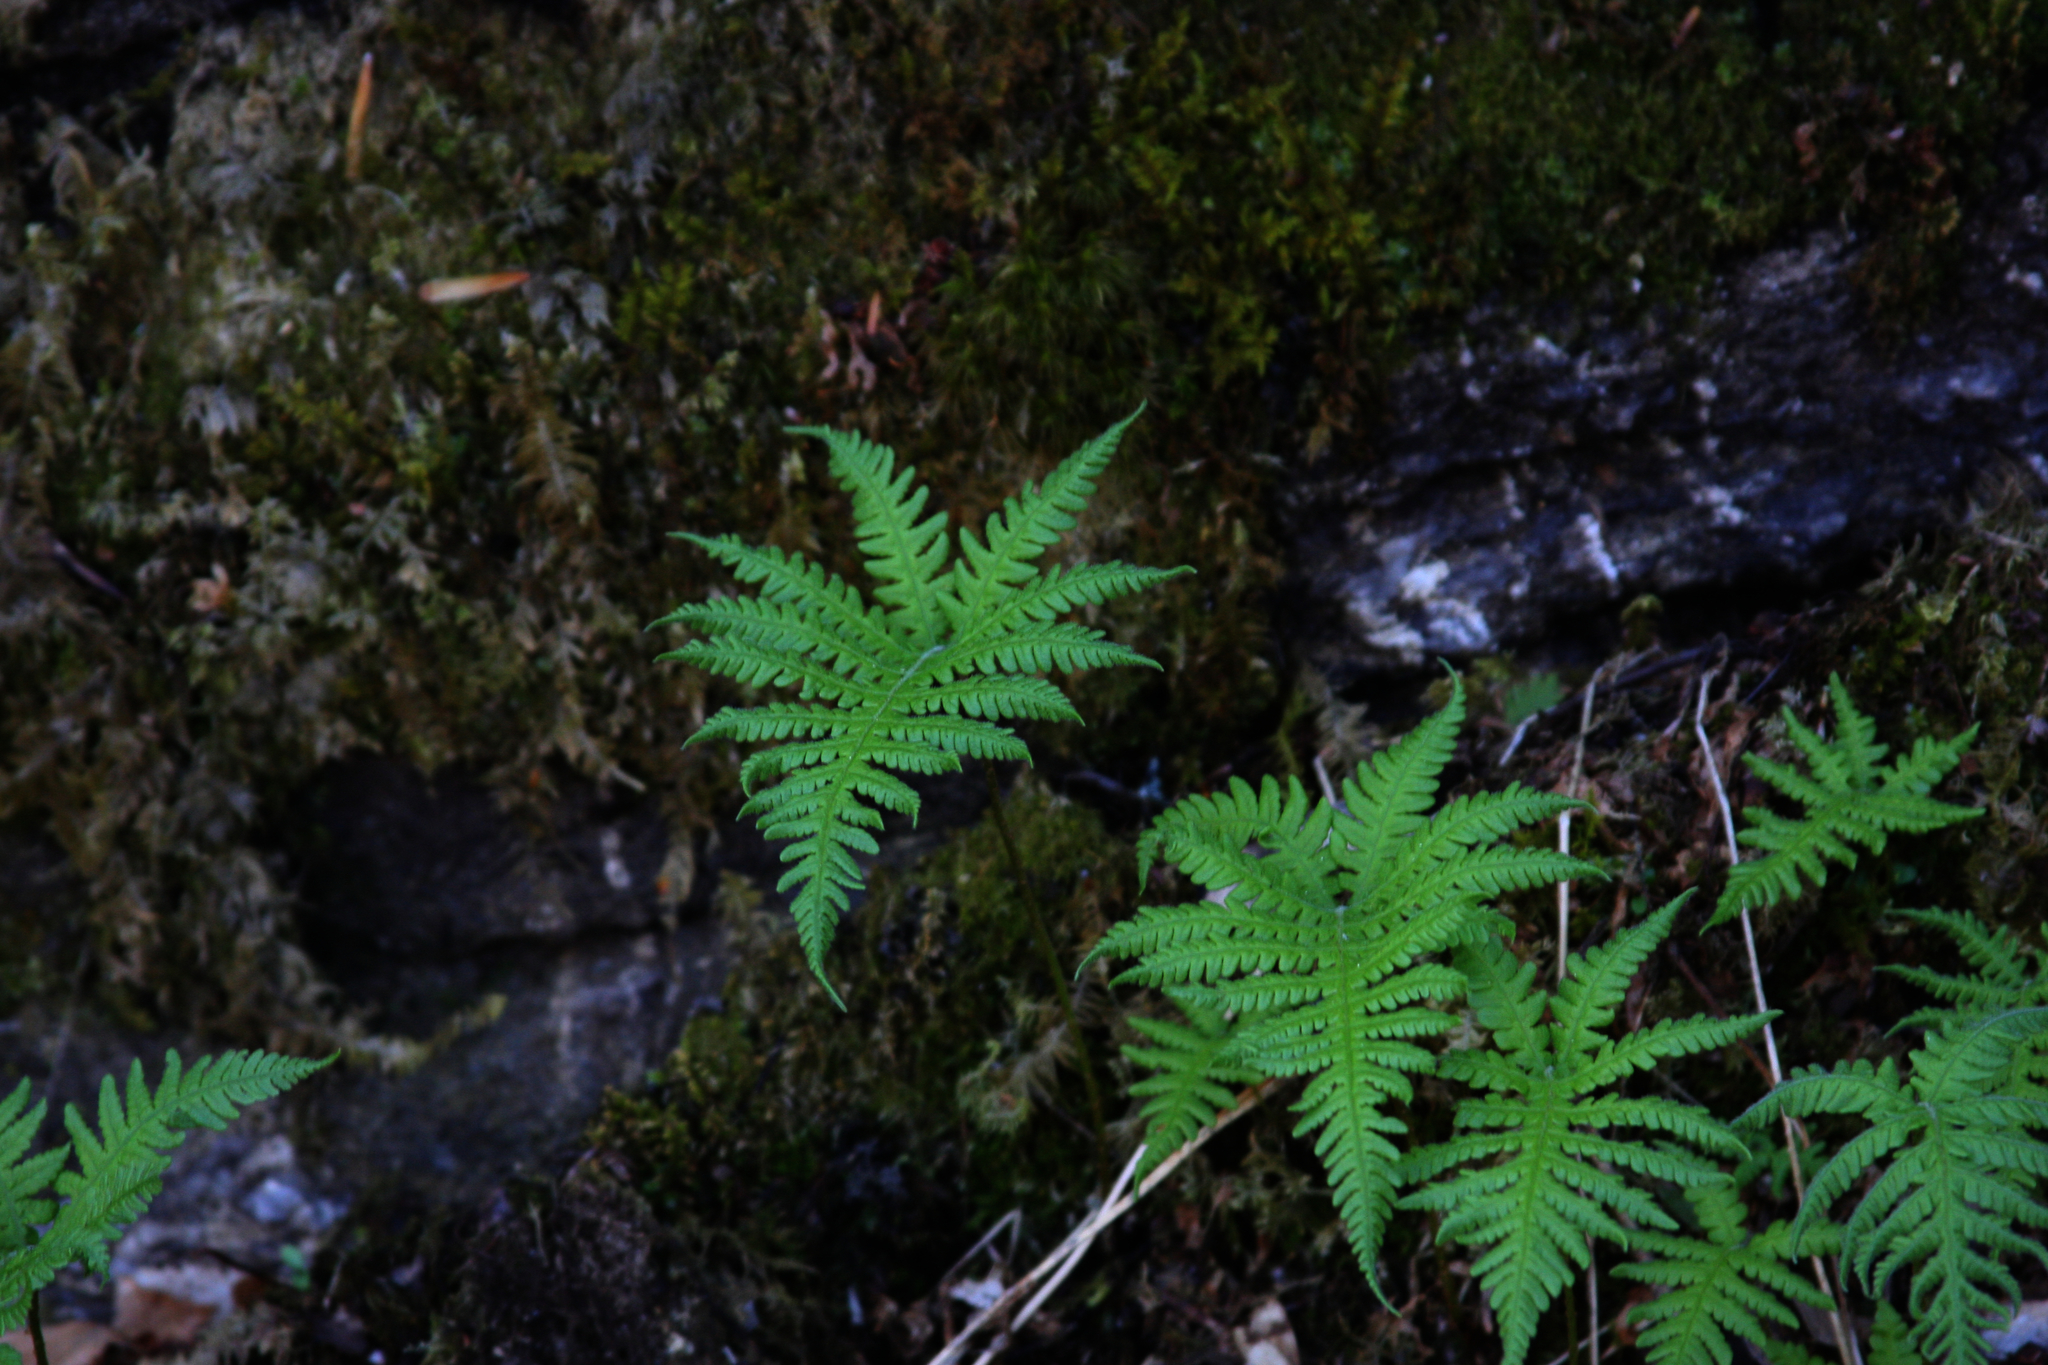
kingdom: Plantae
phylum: Tracheophyta
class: Polypodiopsida
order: Polypodiales
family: Thelypteridaceae
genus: Phegopteris
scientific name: Phegopteris connectilis
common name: Beech fern
